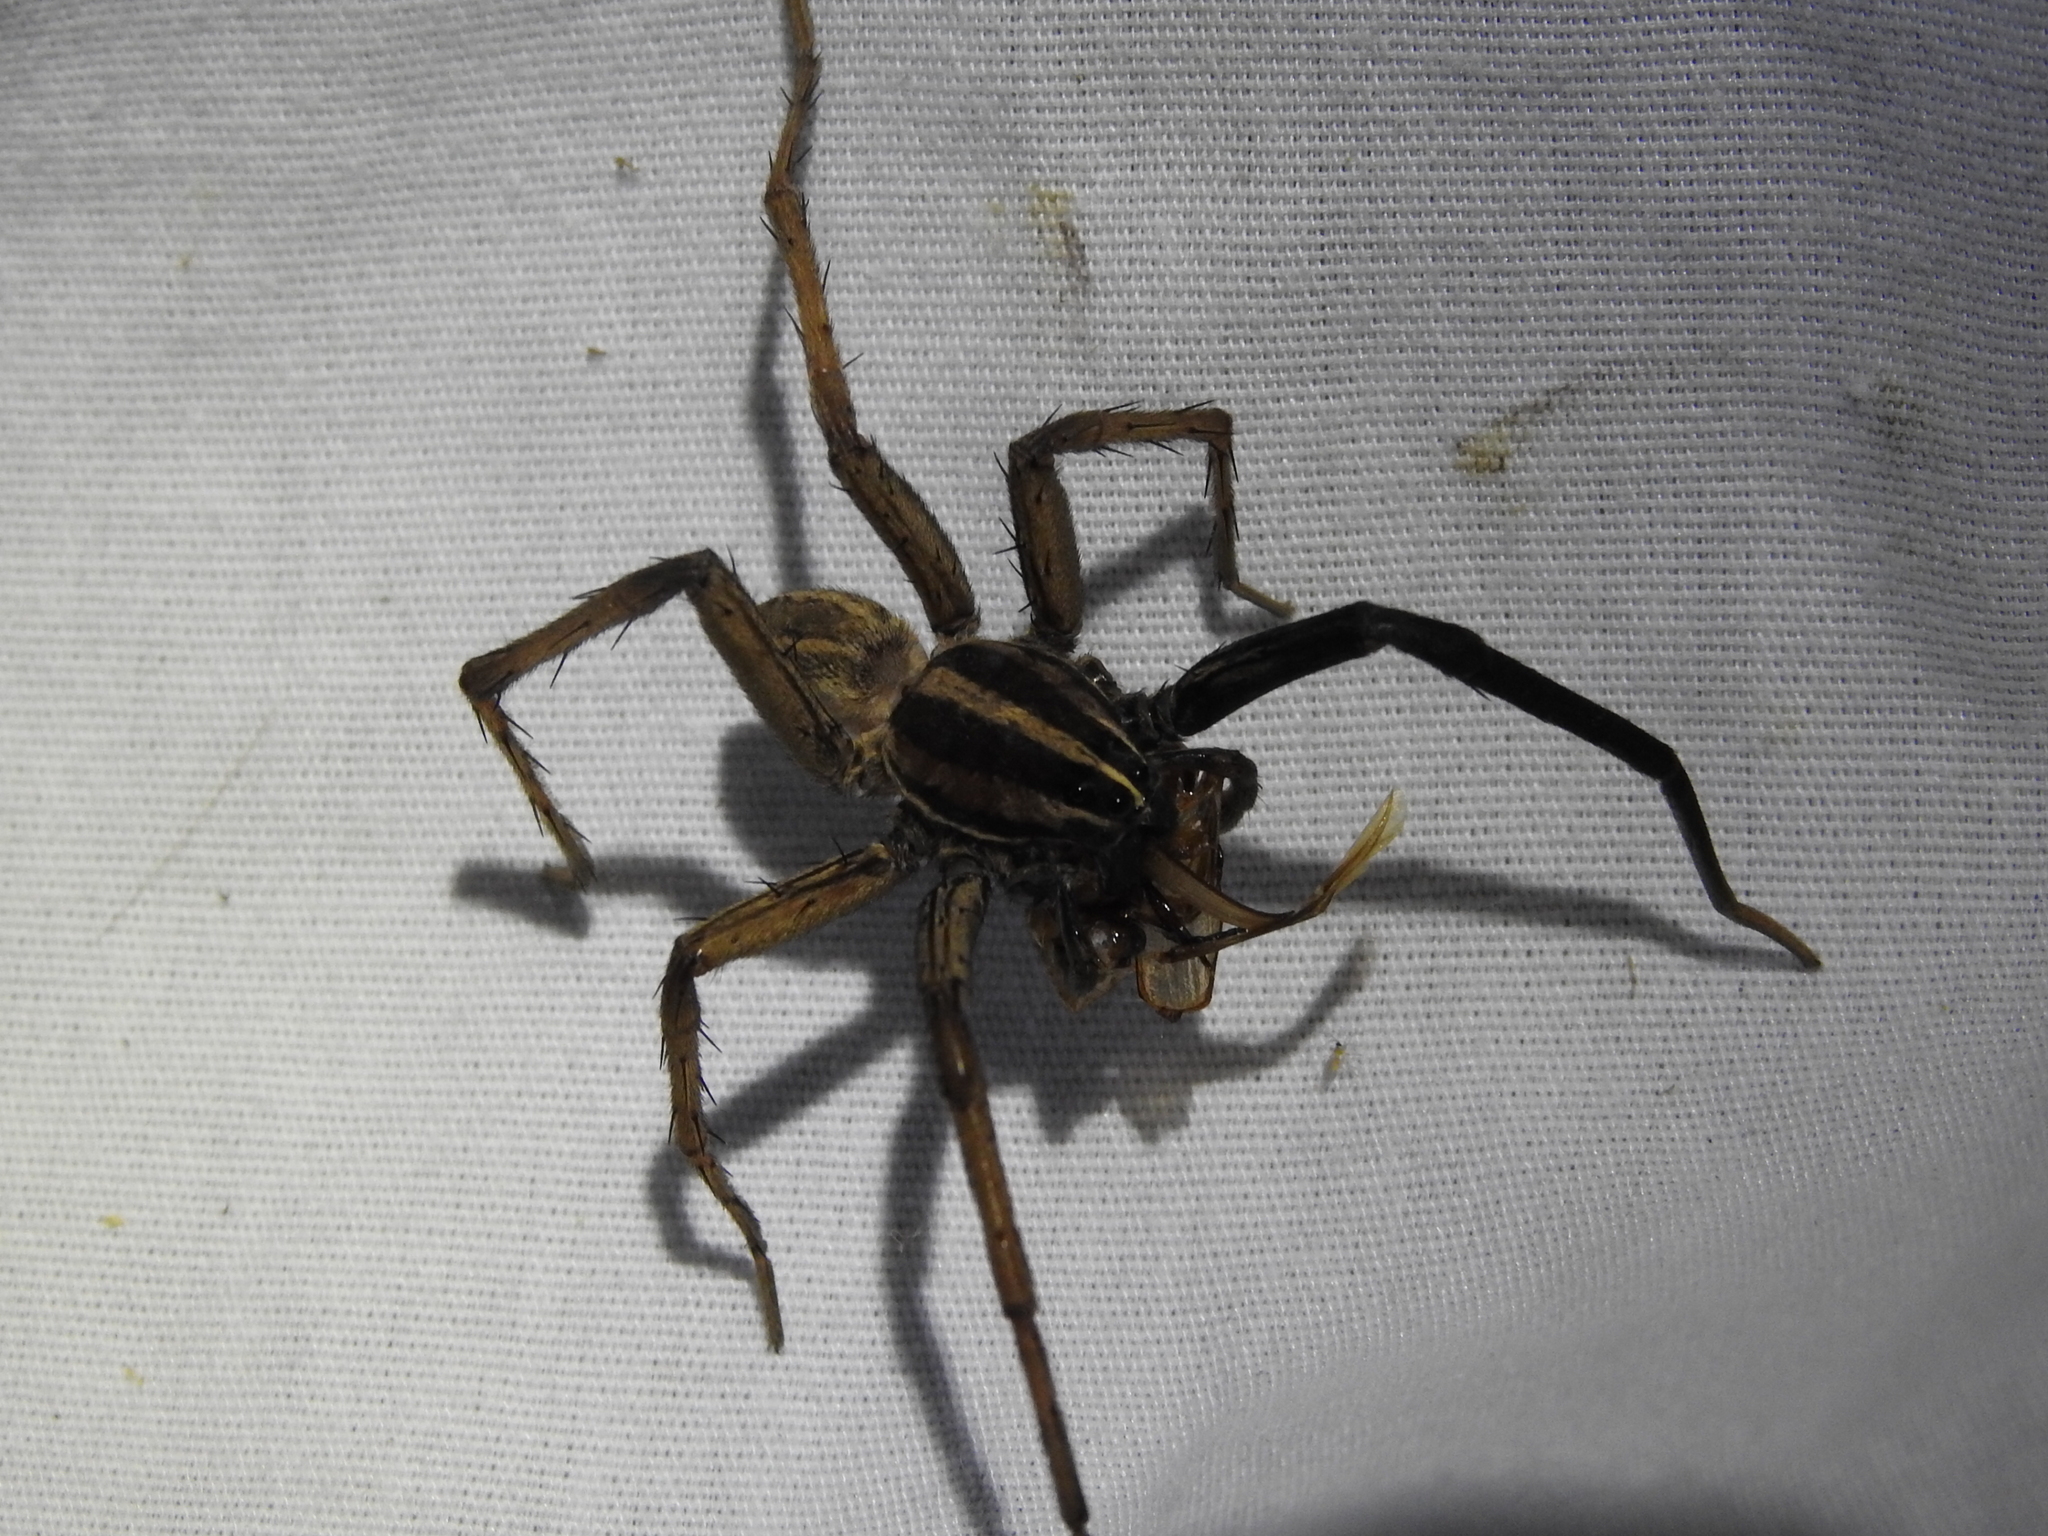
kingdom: Animalia
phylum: Arthropoda
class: Arachnida
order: Araneae
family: Lycosidae
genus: Rabidosa
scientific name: Rabidosa rabida
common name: Rabid wolf spider
